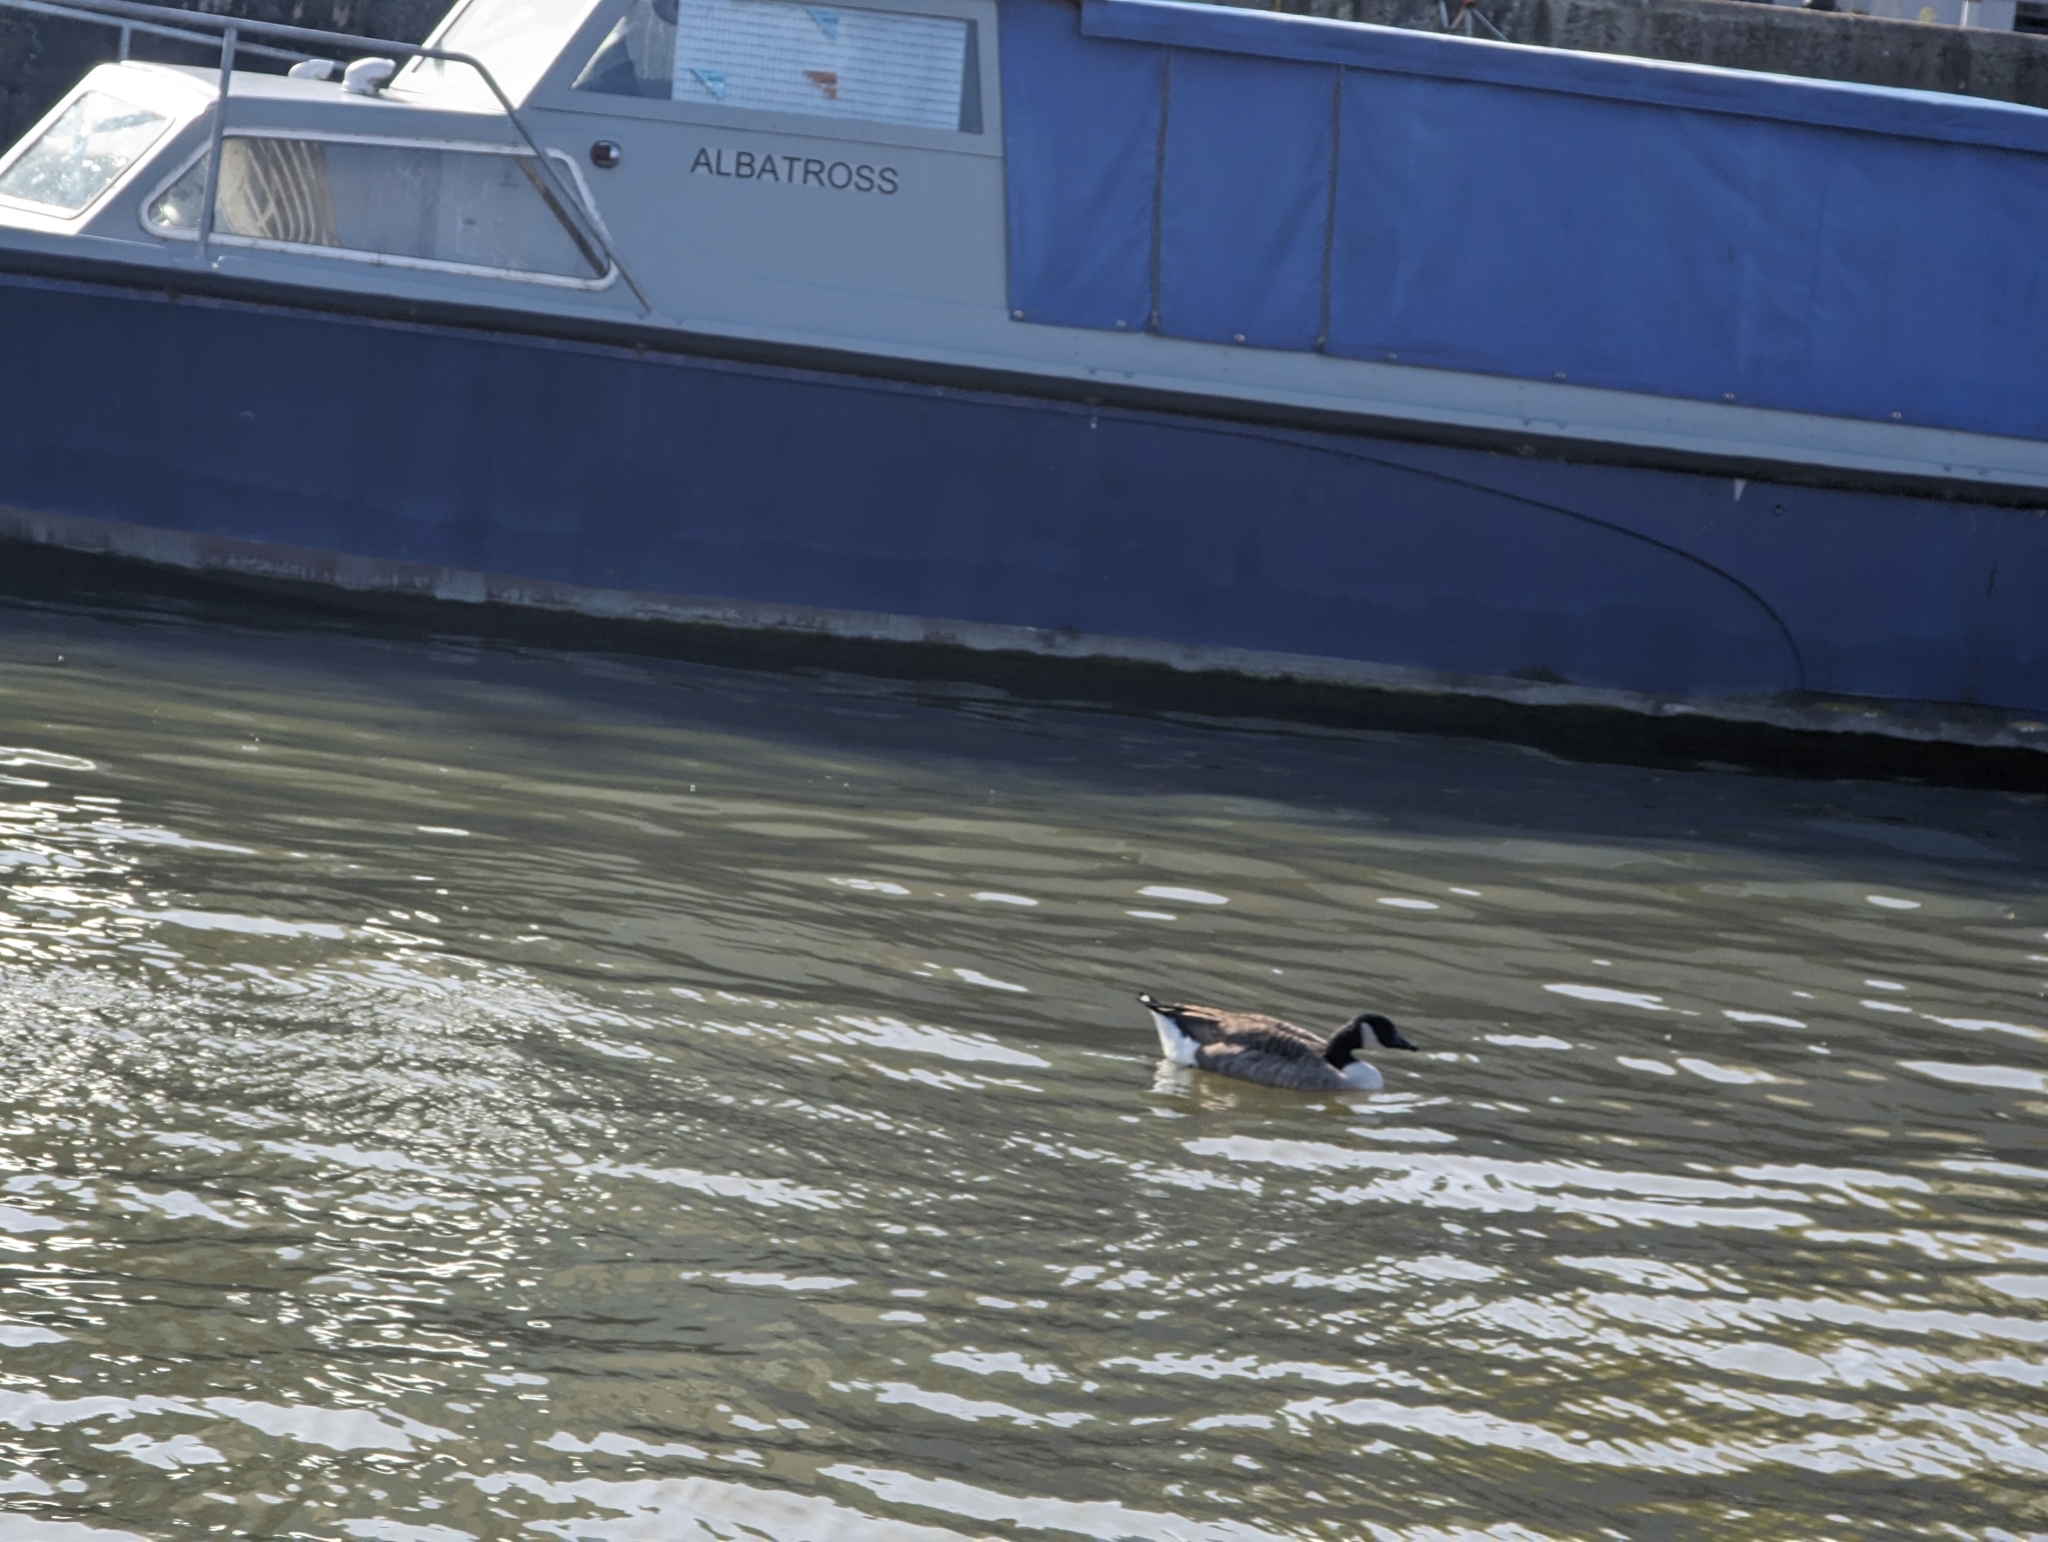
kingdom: Animalia
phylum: Chordata
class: Aves
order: Anseriformes
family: Anatidae
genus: Branta
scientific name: Branta canadensis
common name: Canada goose
